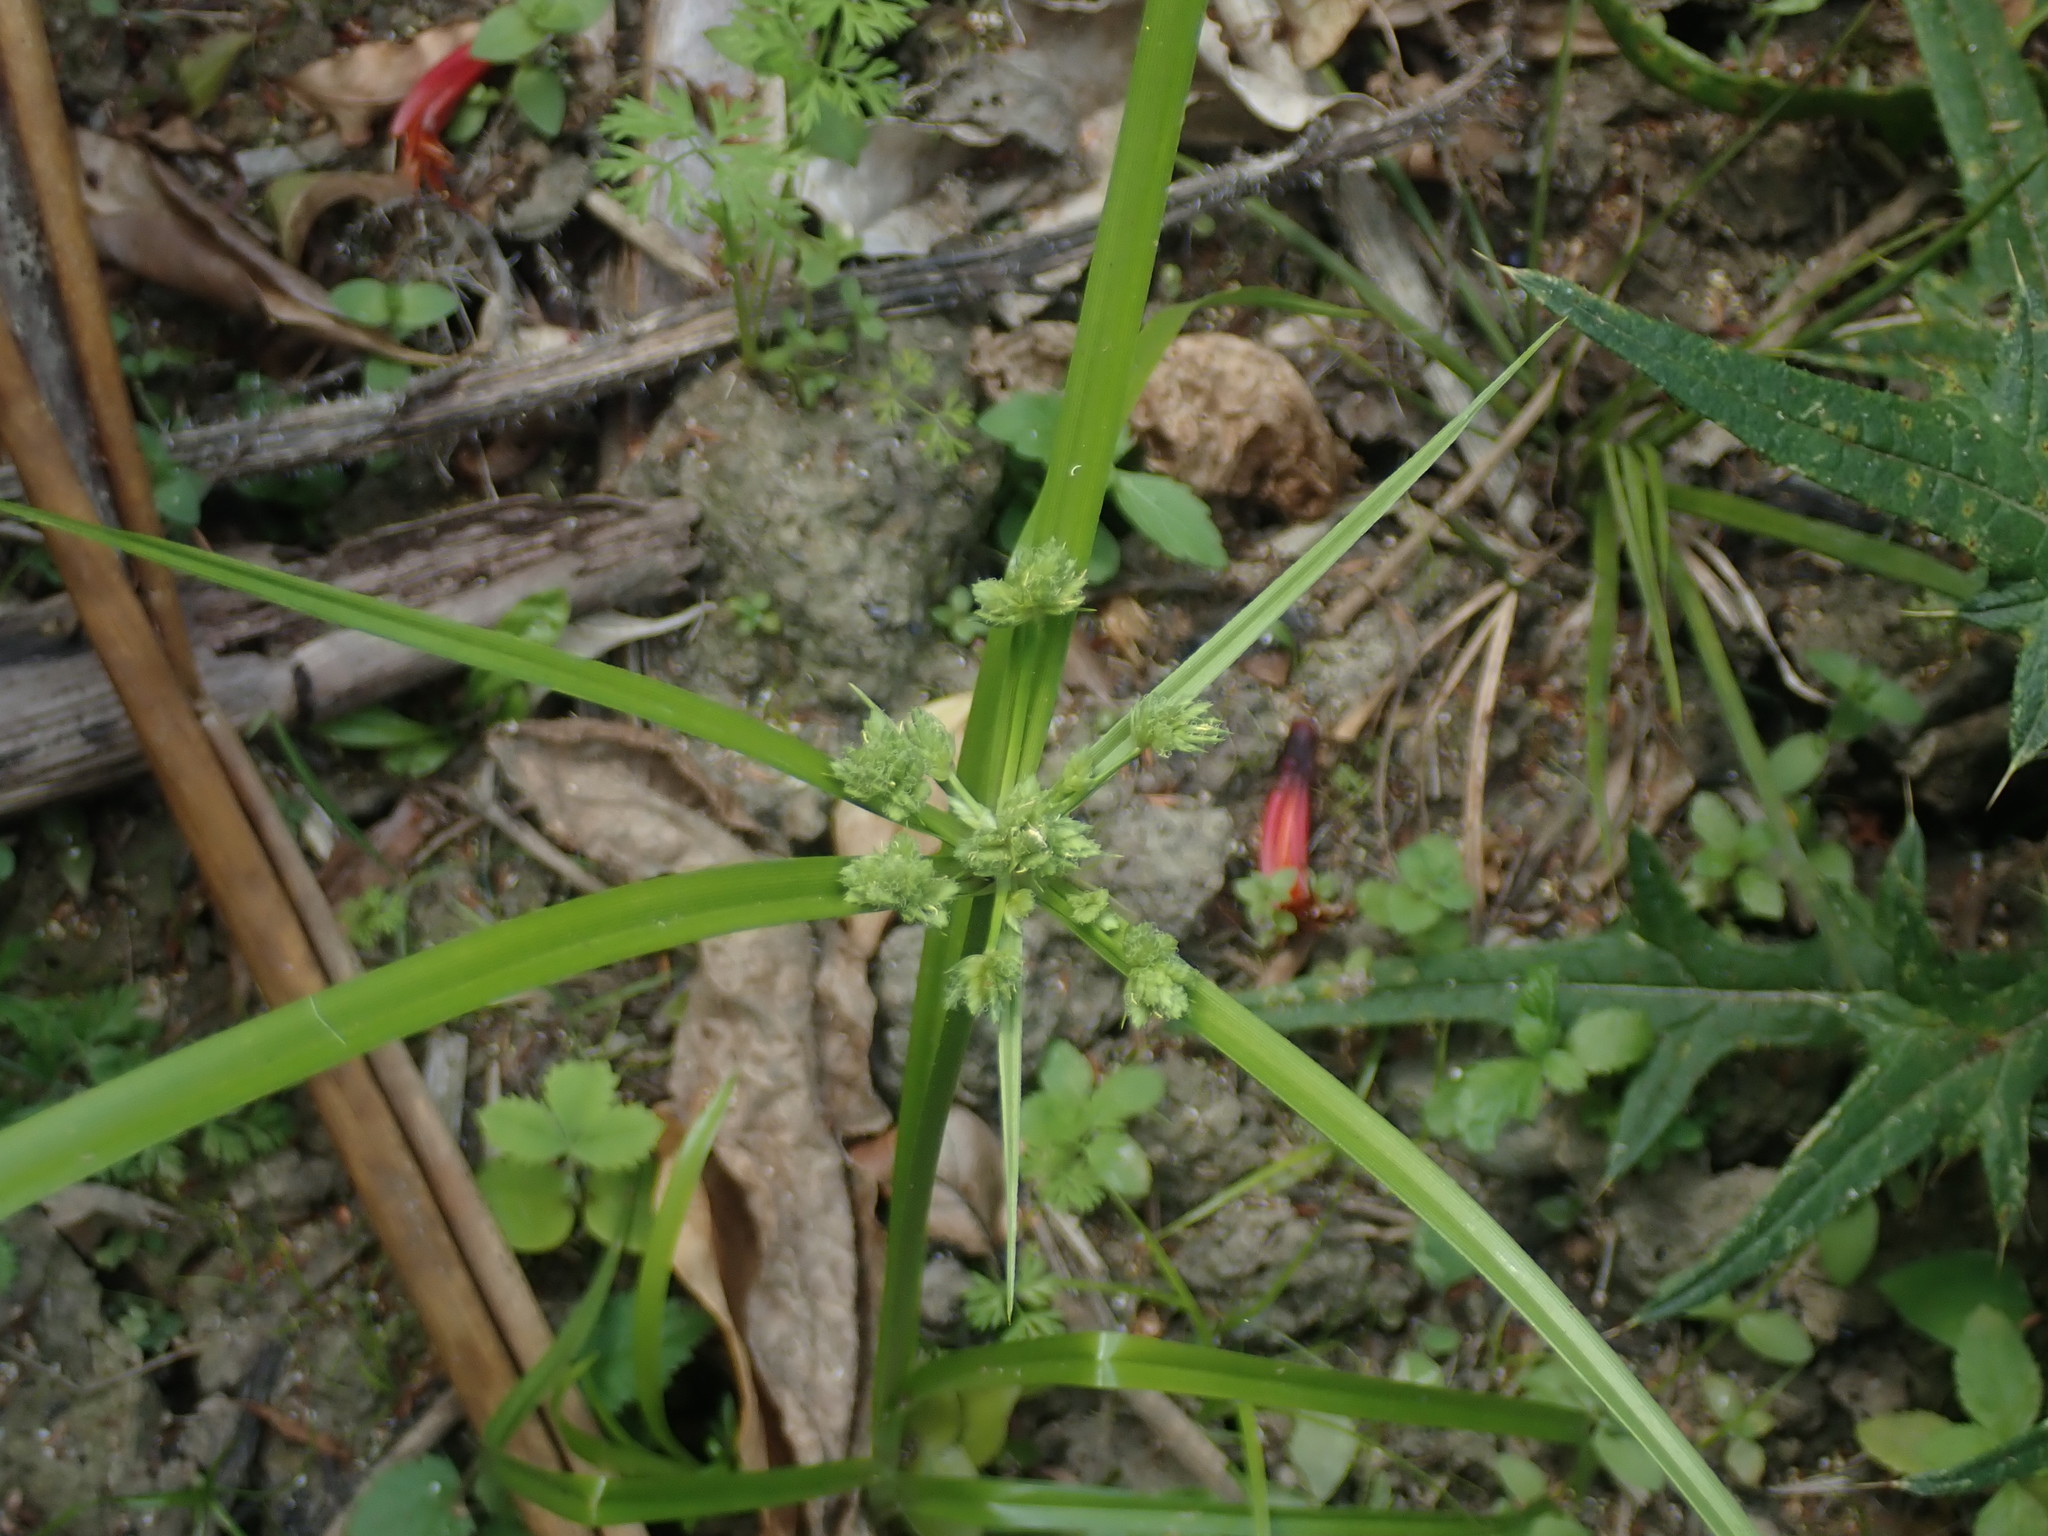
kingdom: Plantae
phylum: Tracheophyta
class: Liliopsida
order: Poales
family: Cyperaceae
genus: Cyperus
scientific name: Cyperus eragrostis
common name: Tall flatsedge
